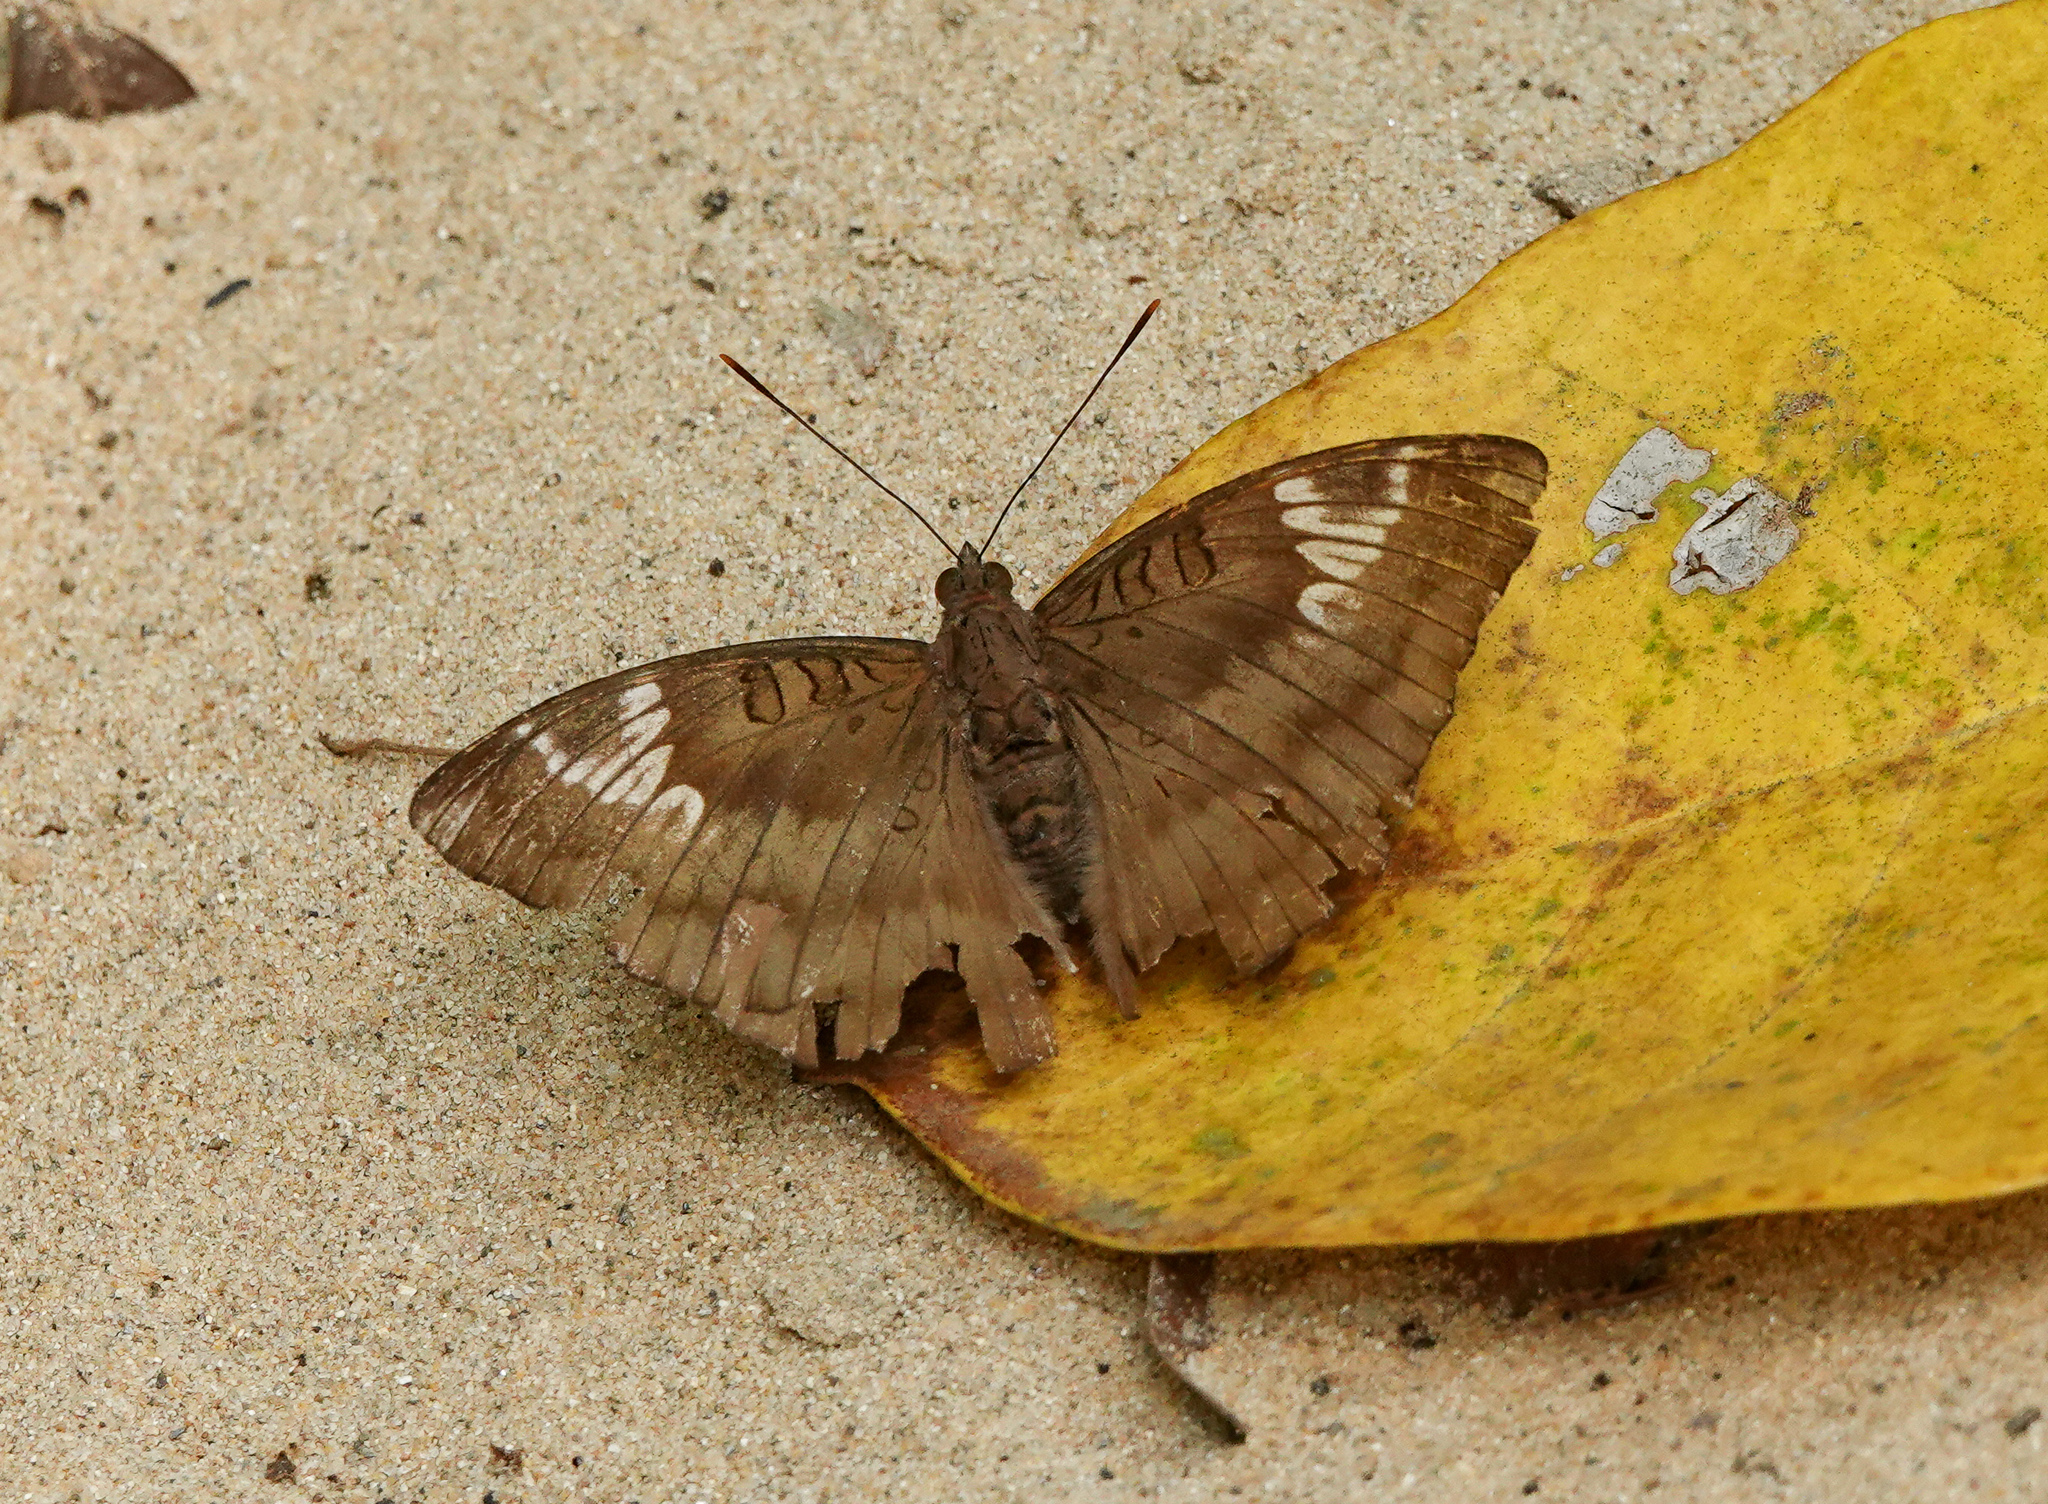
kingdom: Animalia
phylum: Arthropoda
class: Insecta
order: Lepidoptera
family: Nymphalidae
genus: Euthalia
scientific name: Euthalia aconthea
